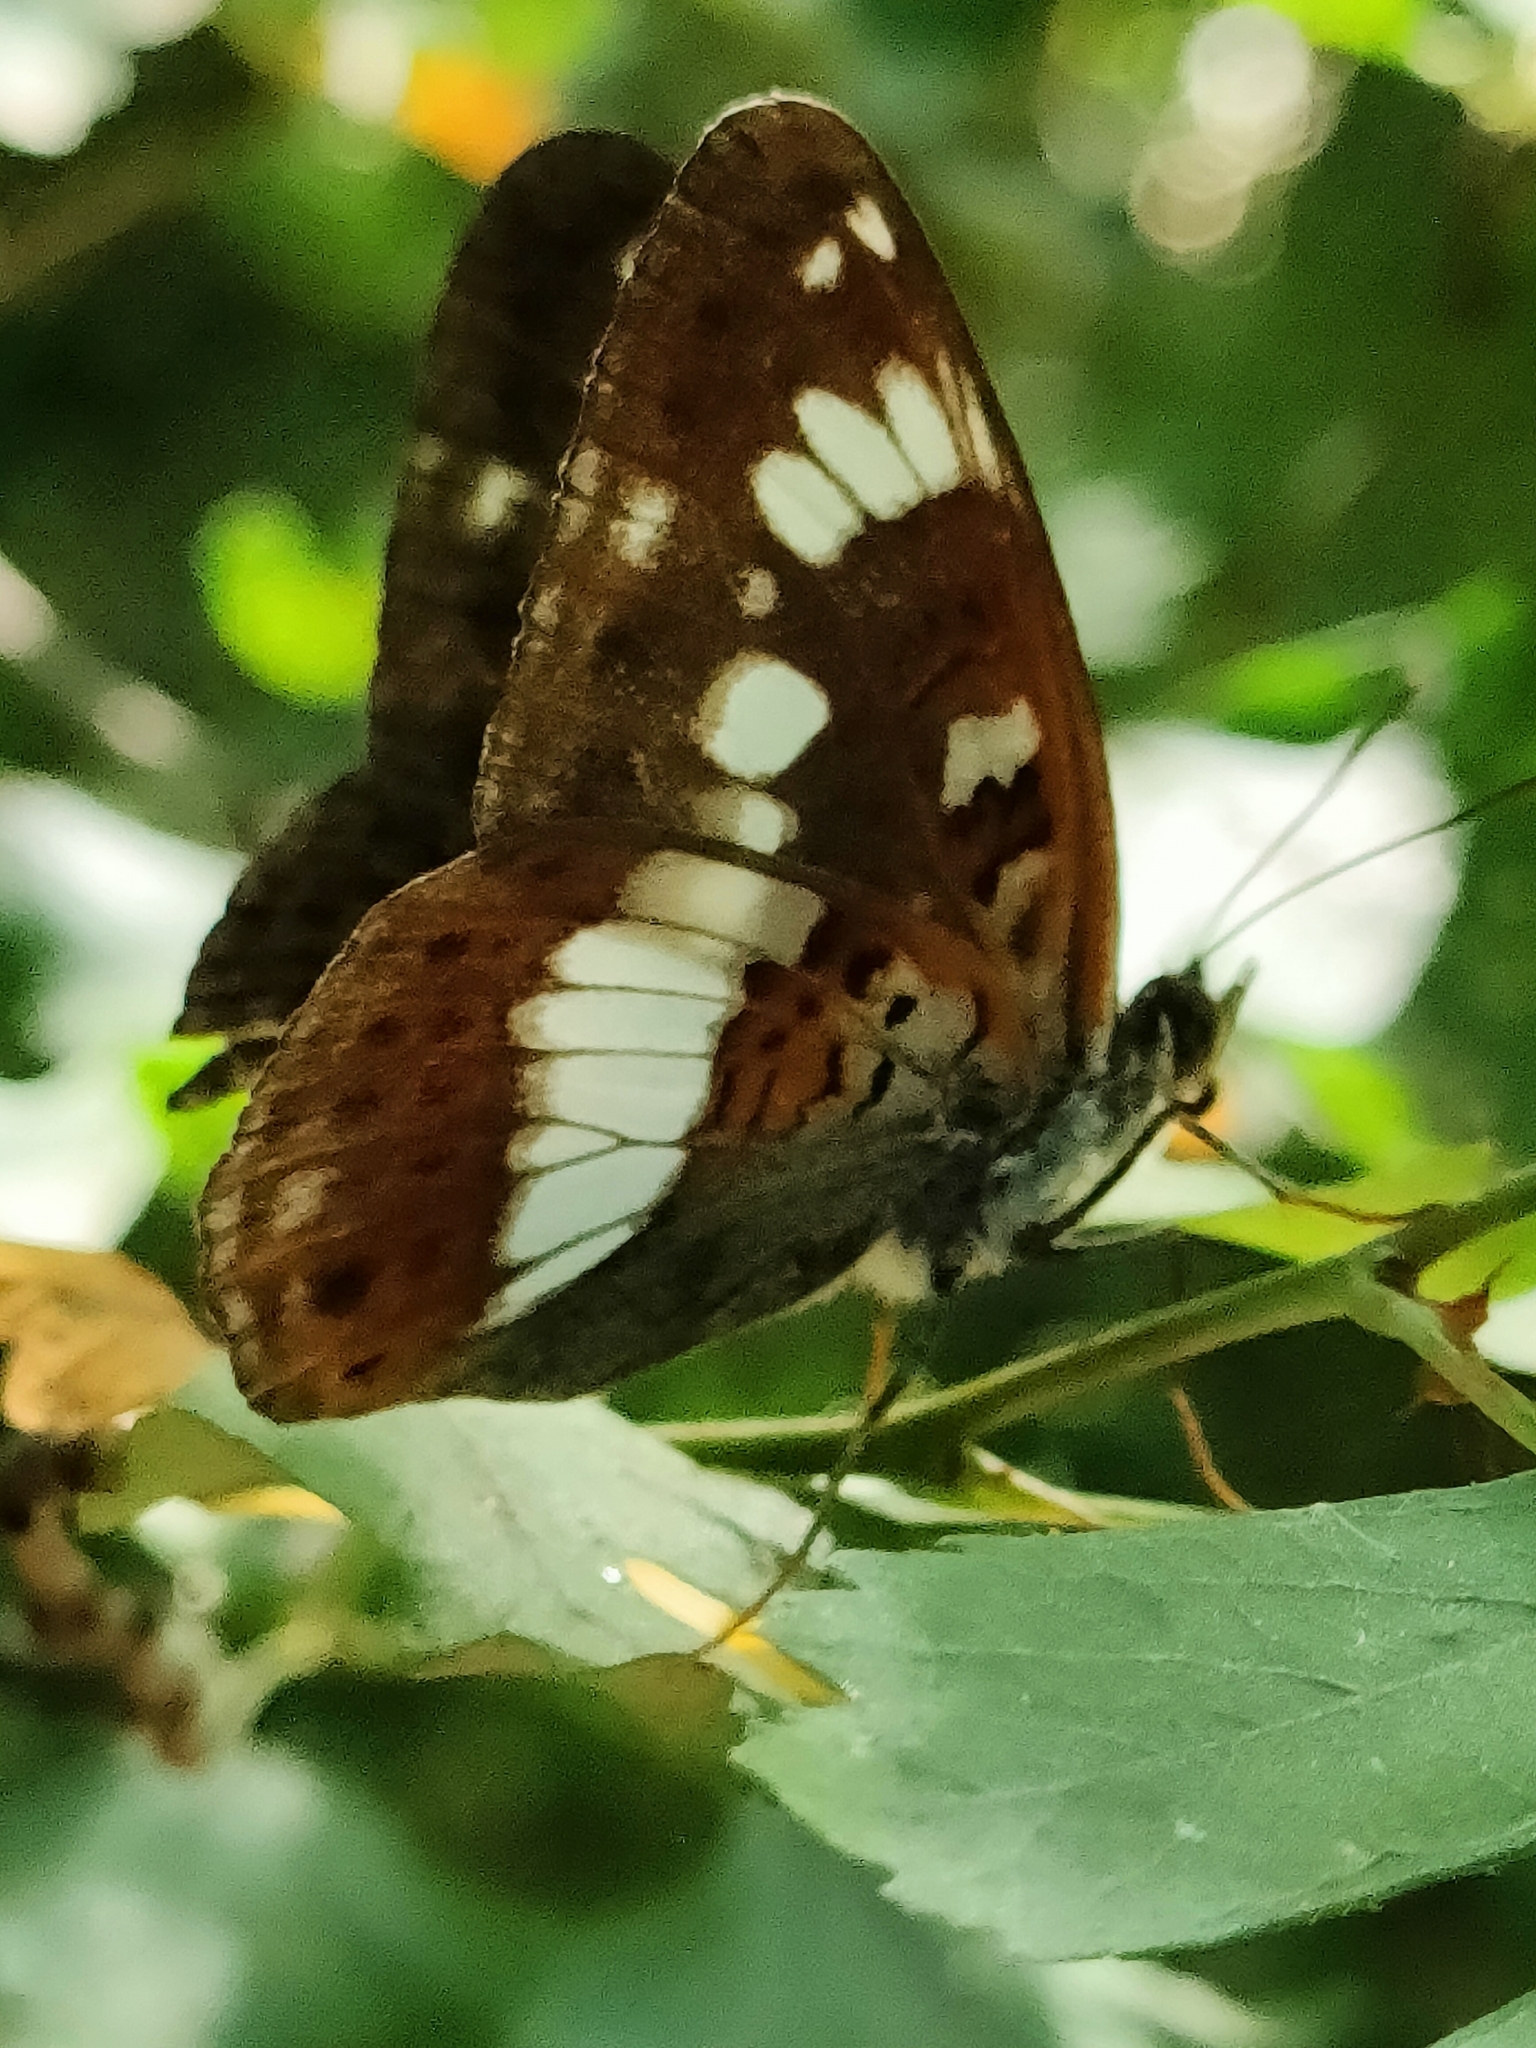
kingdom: Animalia
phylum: Arthropoda
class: Insecta
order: Lepidoptera
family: Nymphalidae
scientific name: Nymphalidae
